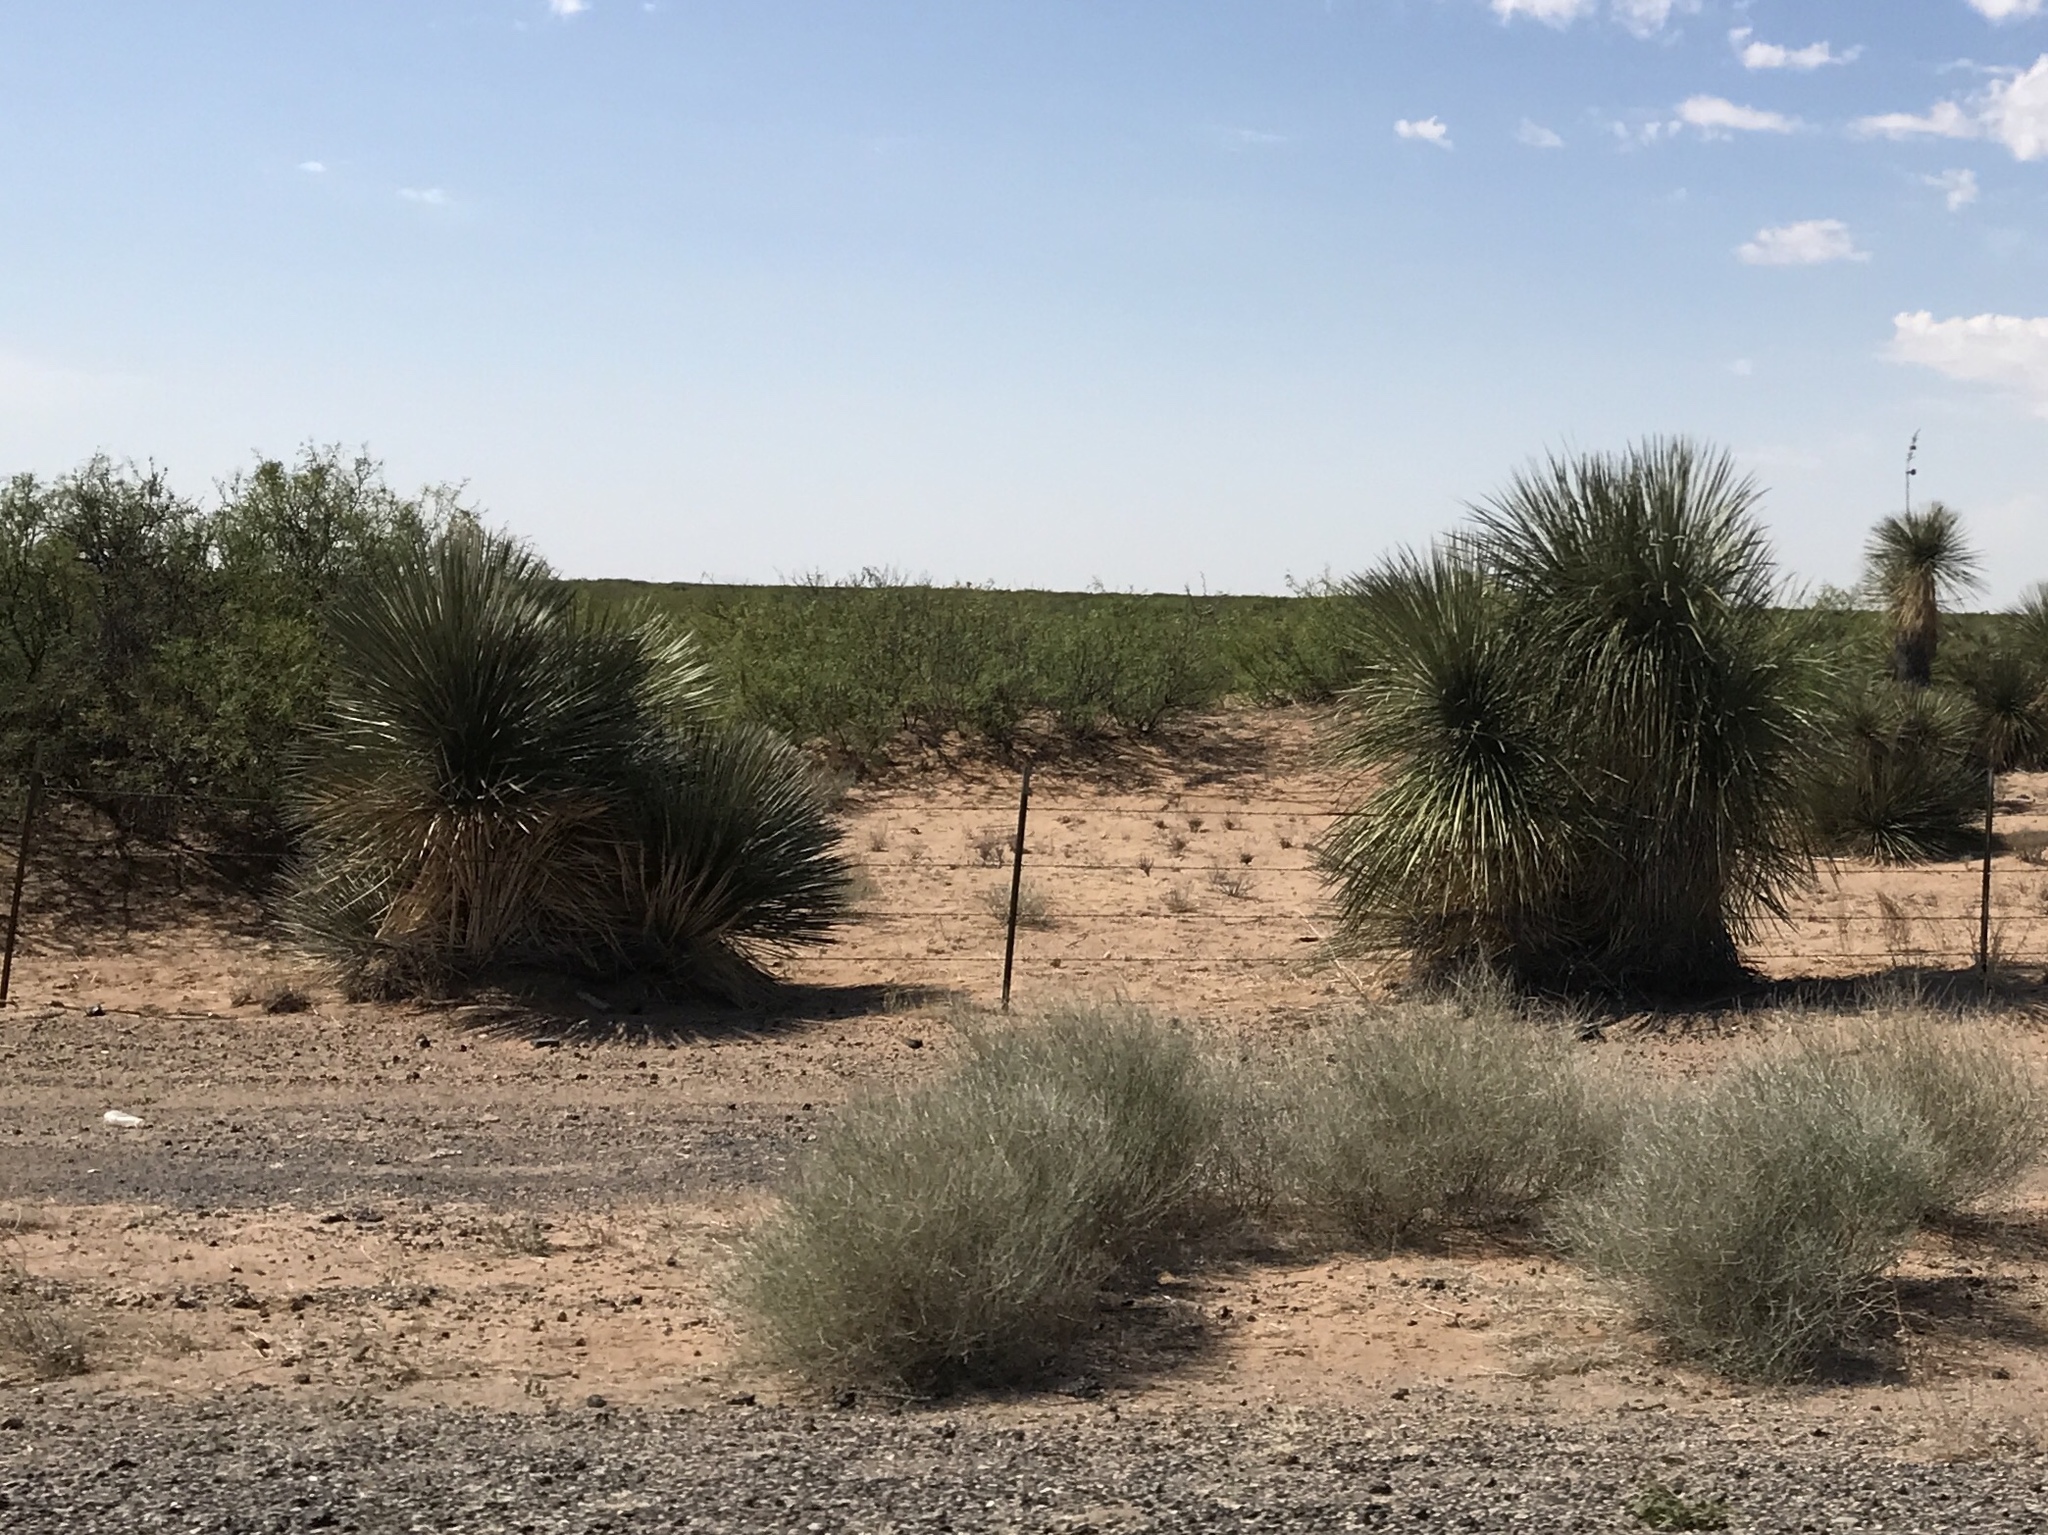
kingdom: Plantae
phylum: Tracheophyta
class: Liliopsida
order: Asparagales
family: Asparagaceae
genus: Yucca
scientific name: Yucca elata
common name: Palmella
